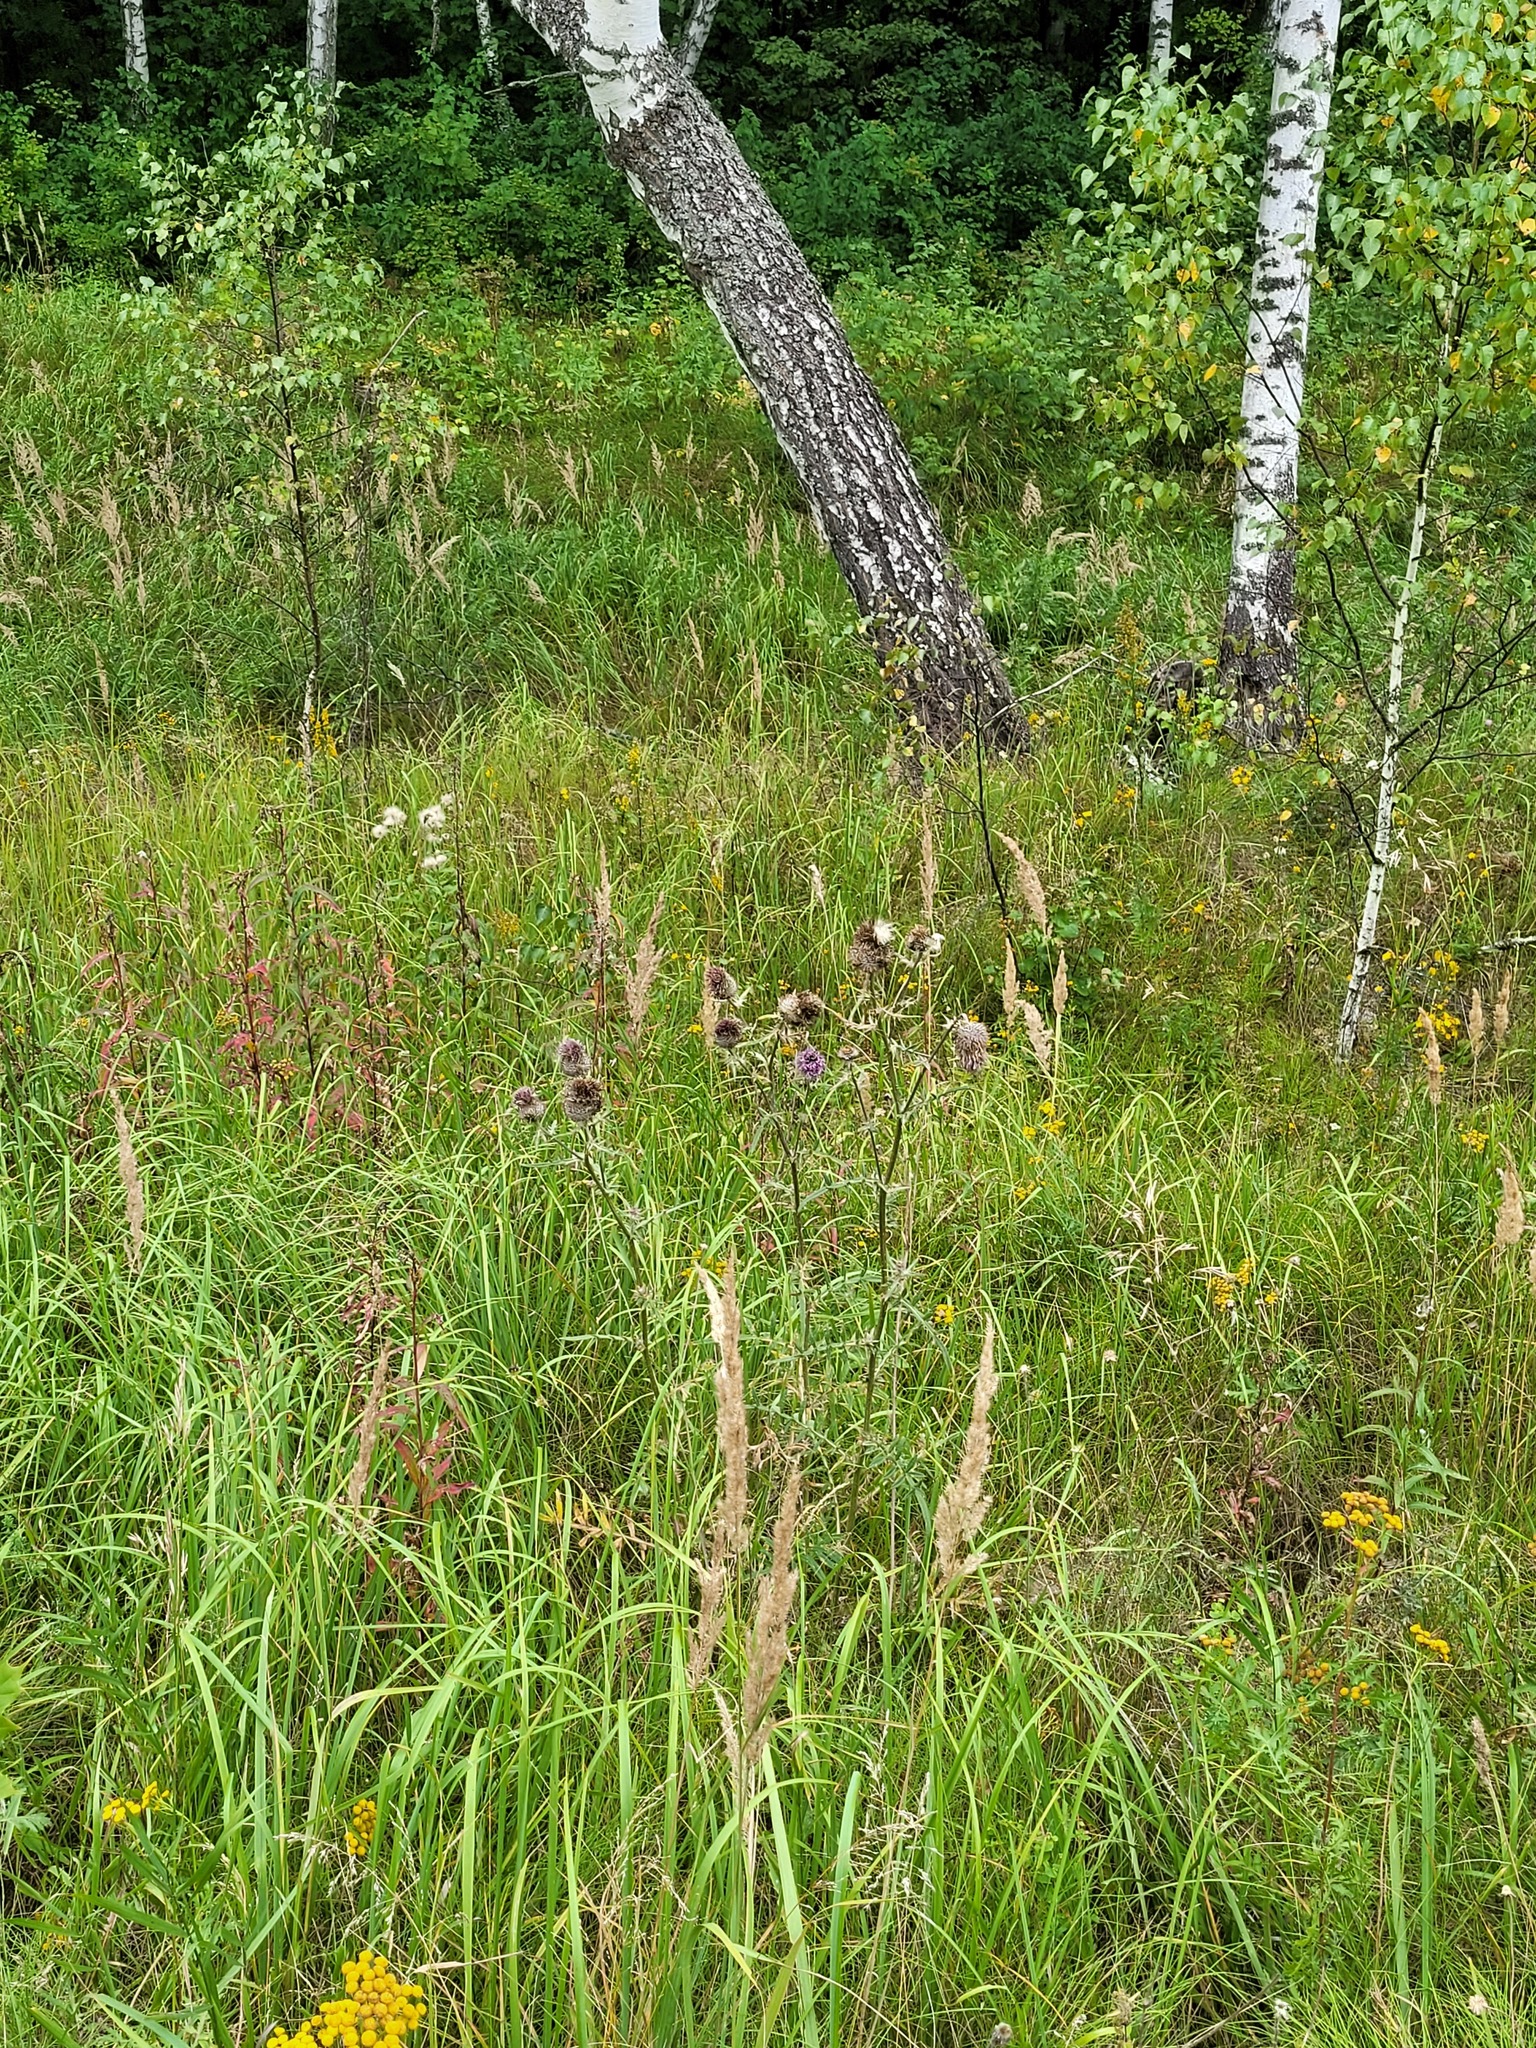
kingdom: Plantae
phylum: Tracheophyta
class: Magnoliopsida
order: Asterales
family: Asteraceae
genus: Lophiolepis
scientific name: Lophiolepis decussata
